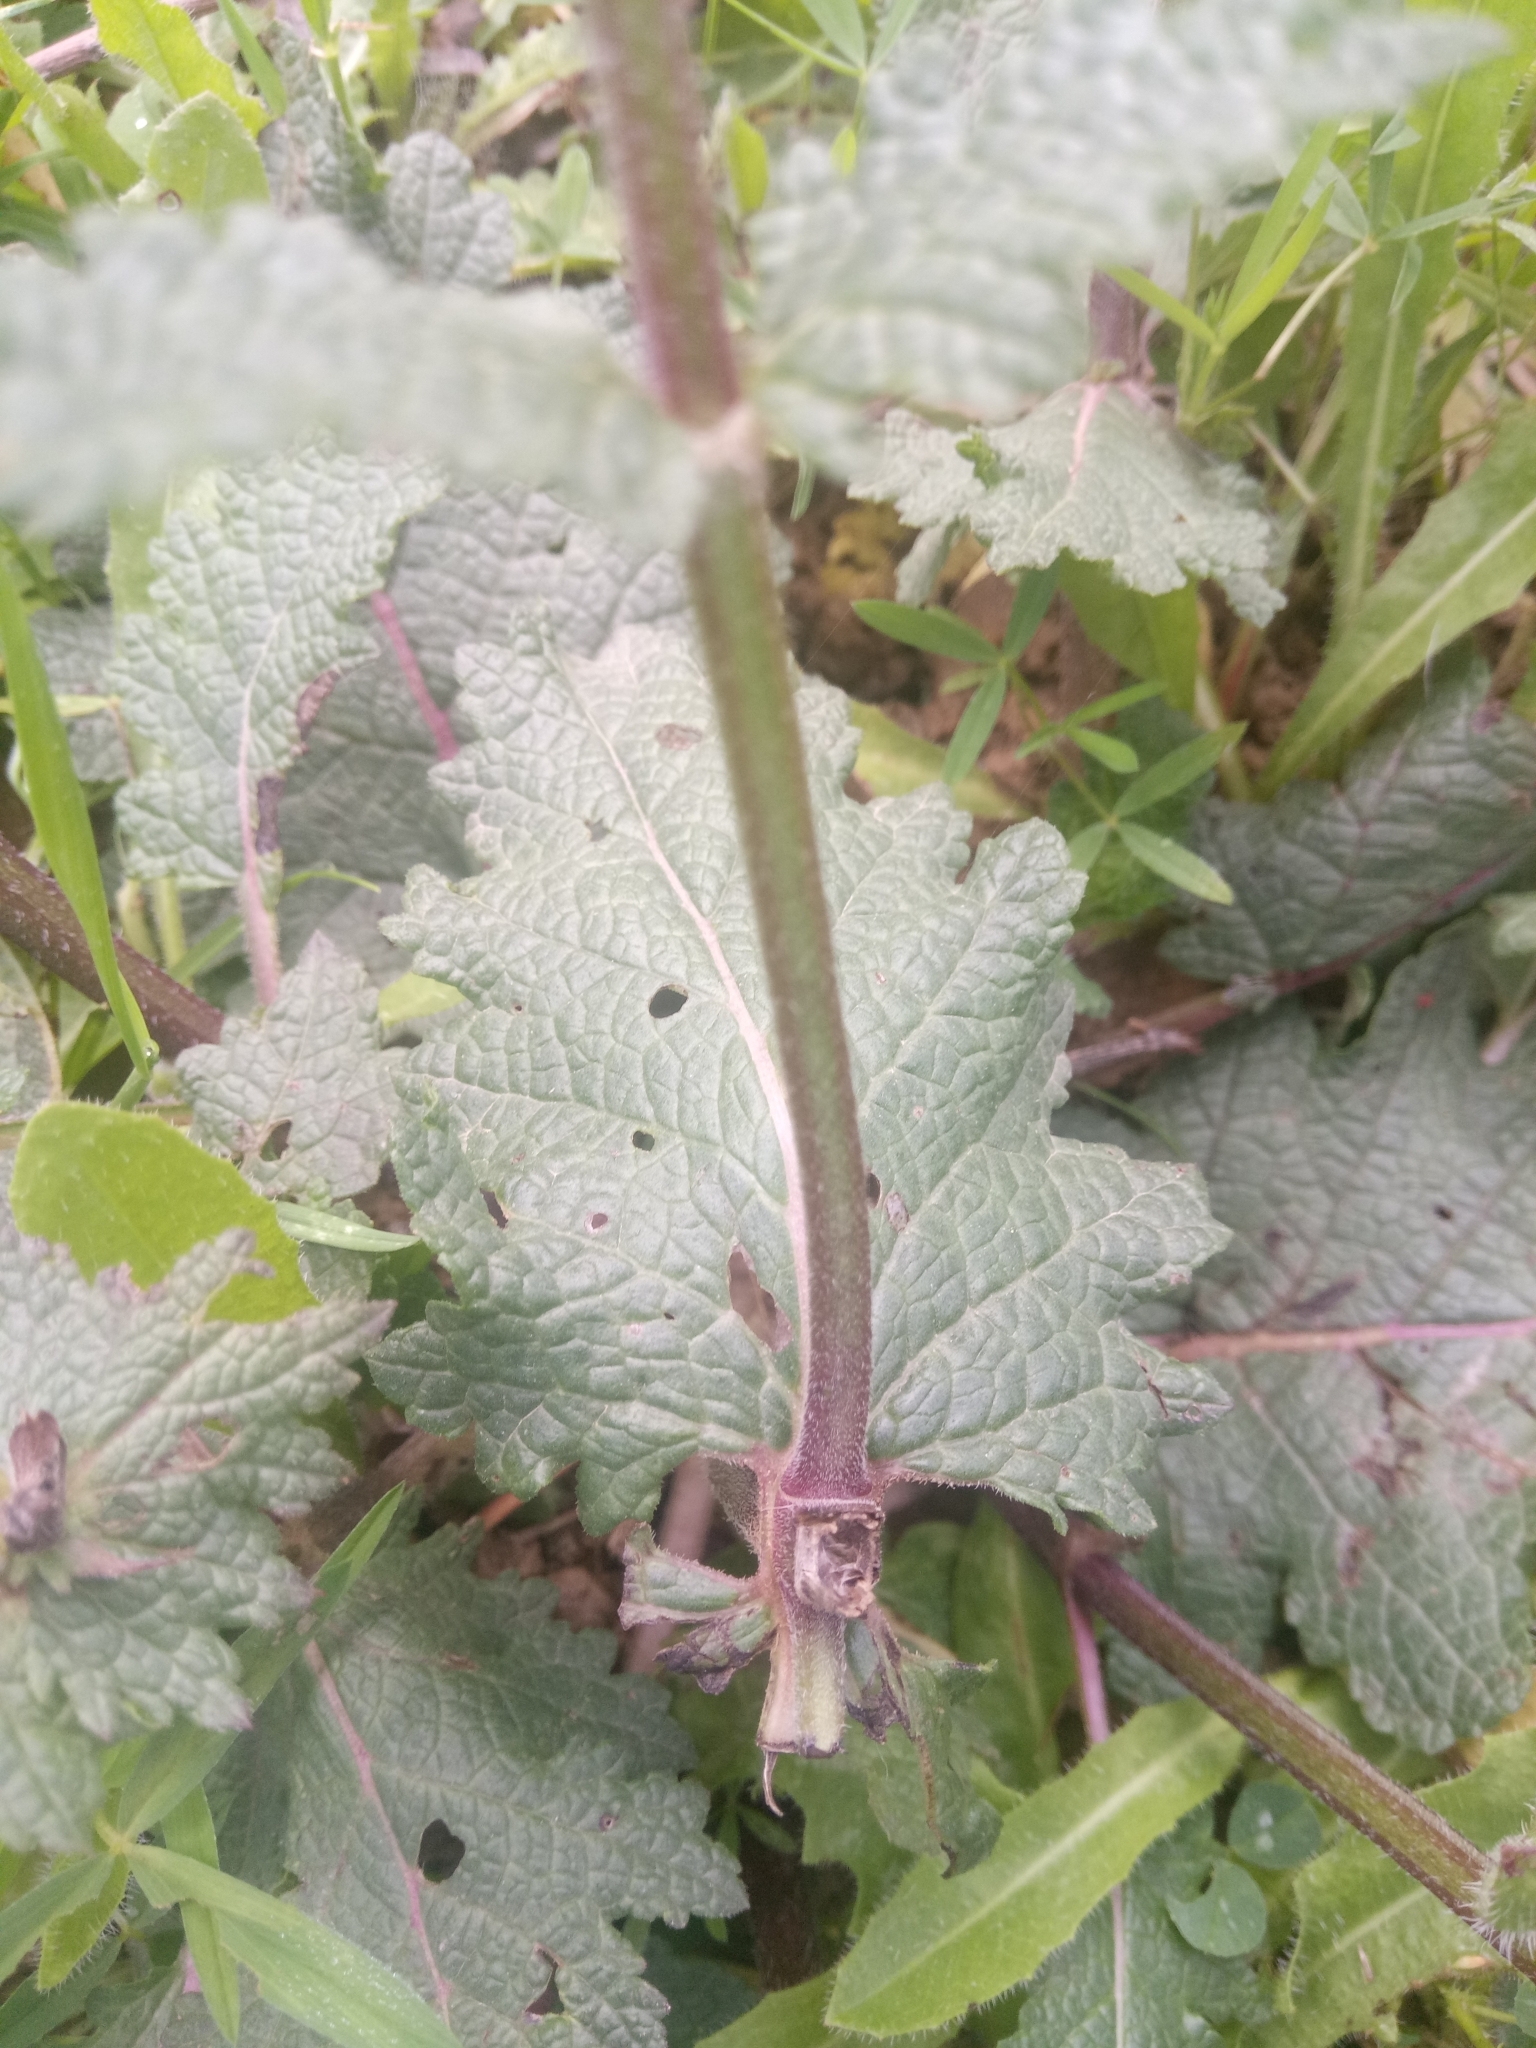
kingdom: Plantae
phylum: Tracheophyta
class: Magnoliopsida
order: Lamiales
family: Lamiaceae
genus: Salvia
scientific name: Salvia verbenaca
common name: Wild clary
